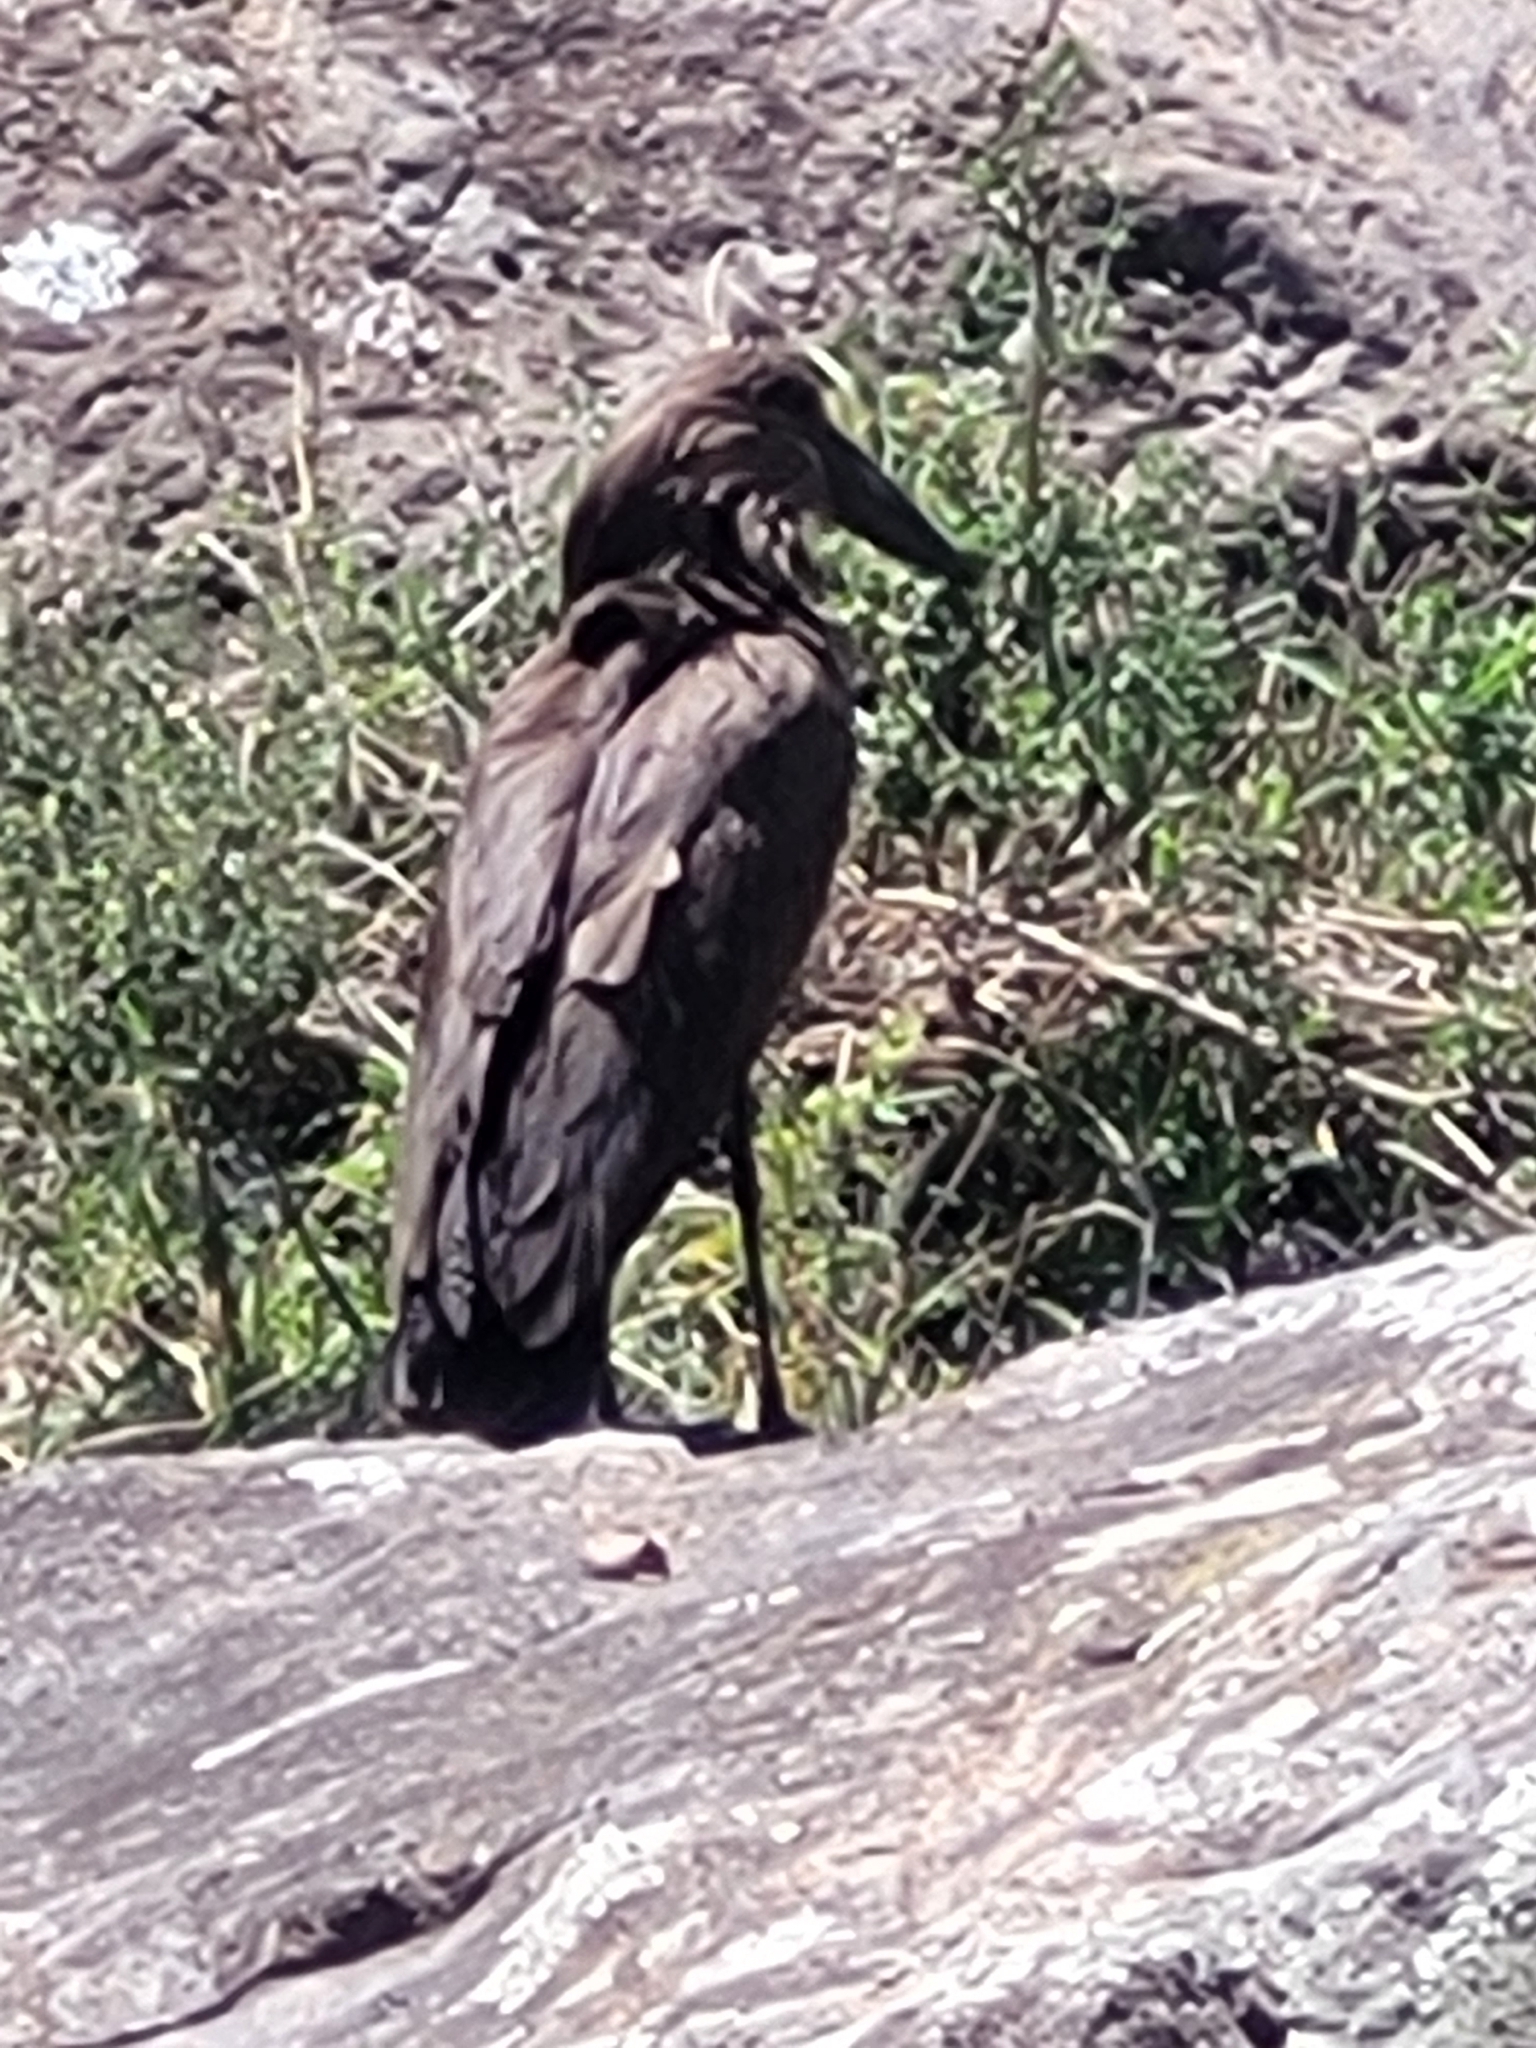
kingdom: Animalia
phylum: Chordata
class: Aves
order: Pelecaniformes
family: Scopidae
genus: Scopus
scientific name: Scopus umbretta
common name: Hamerkop
